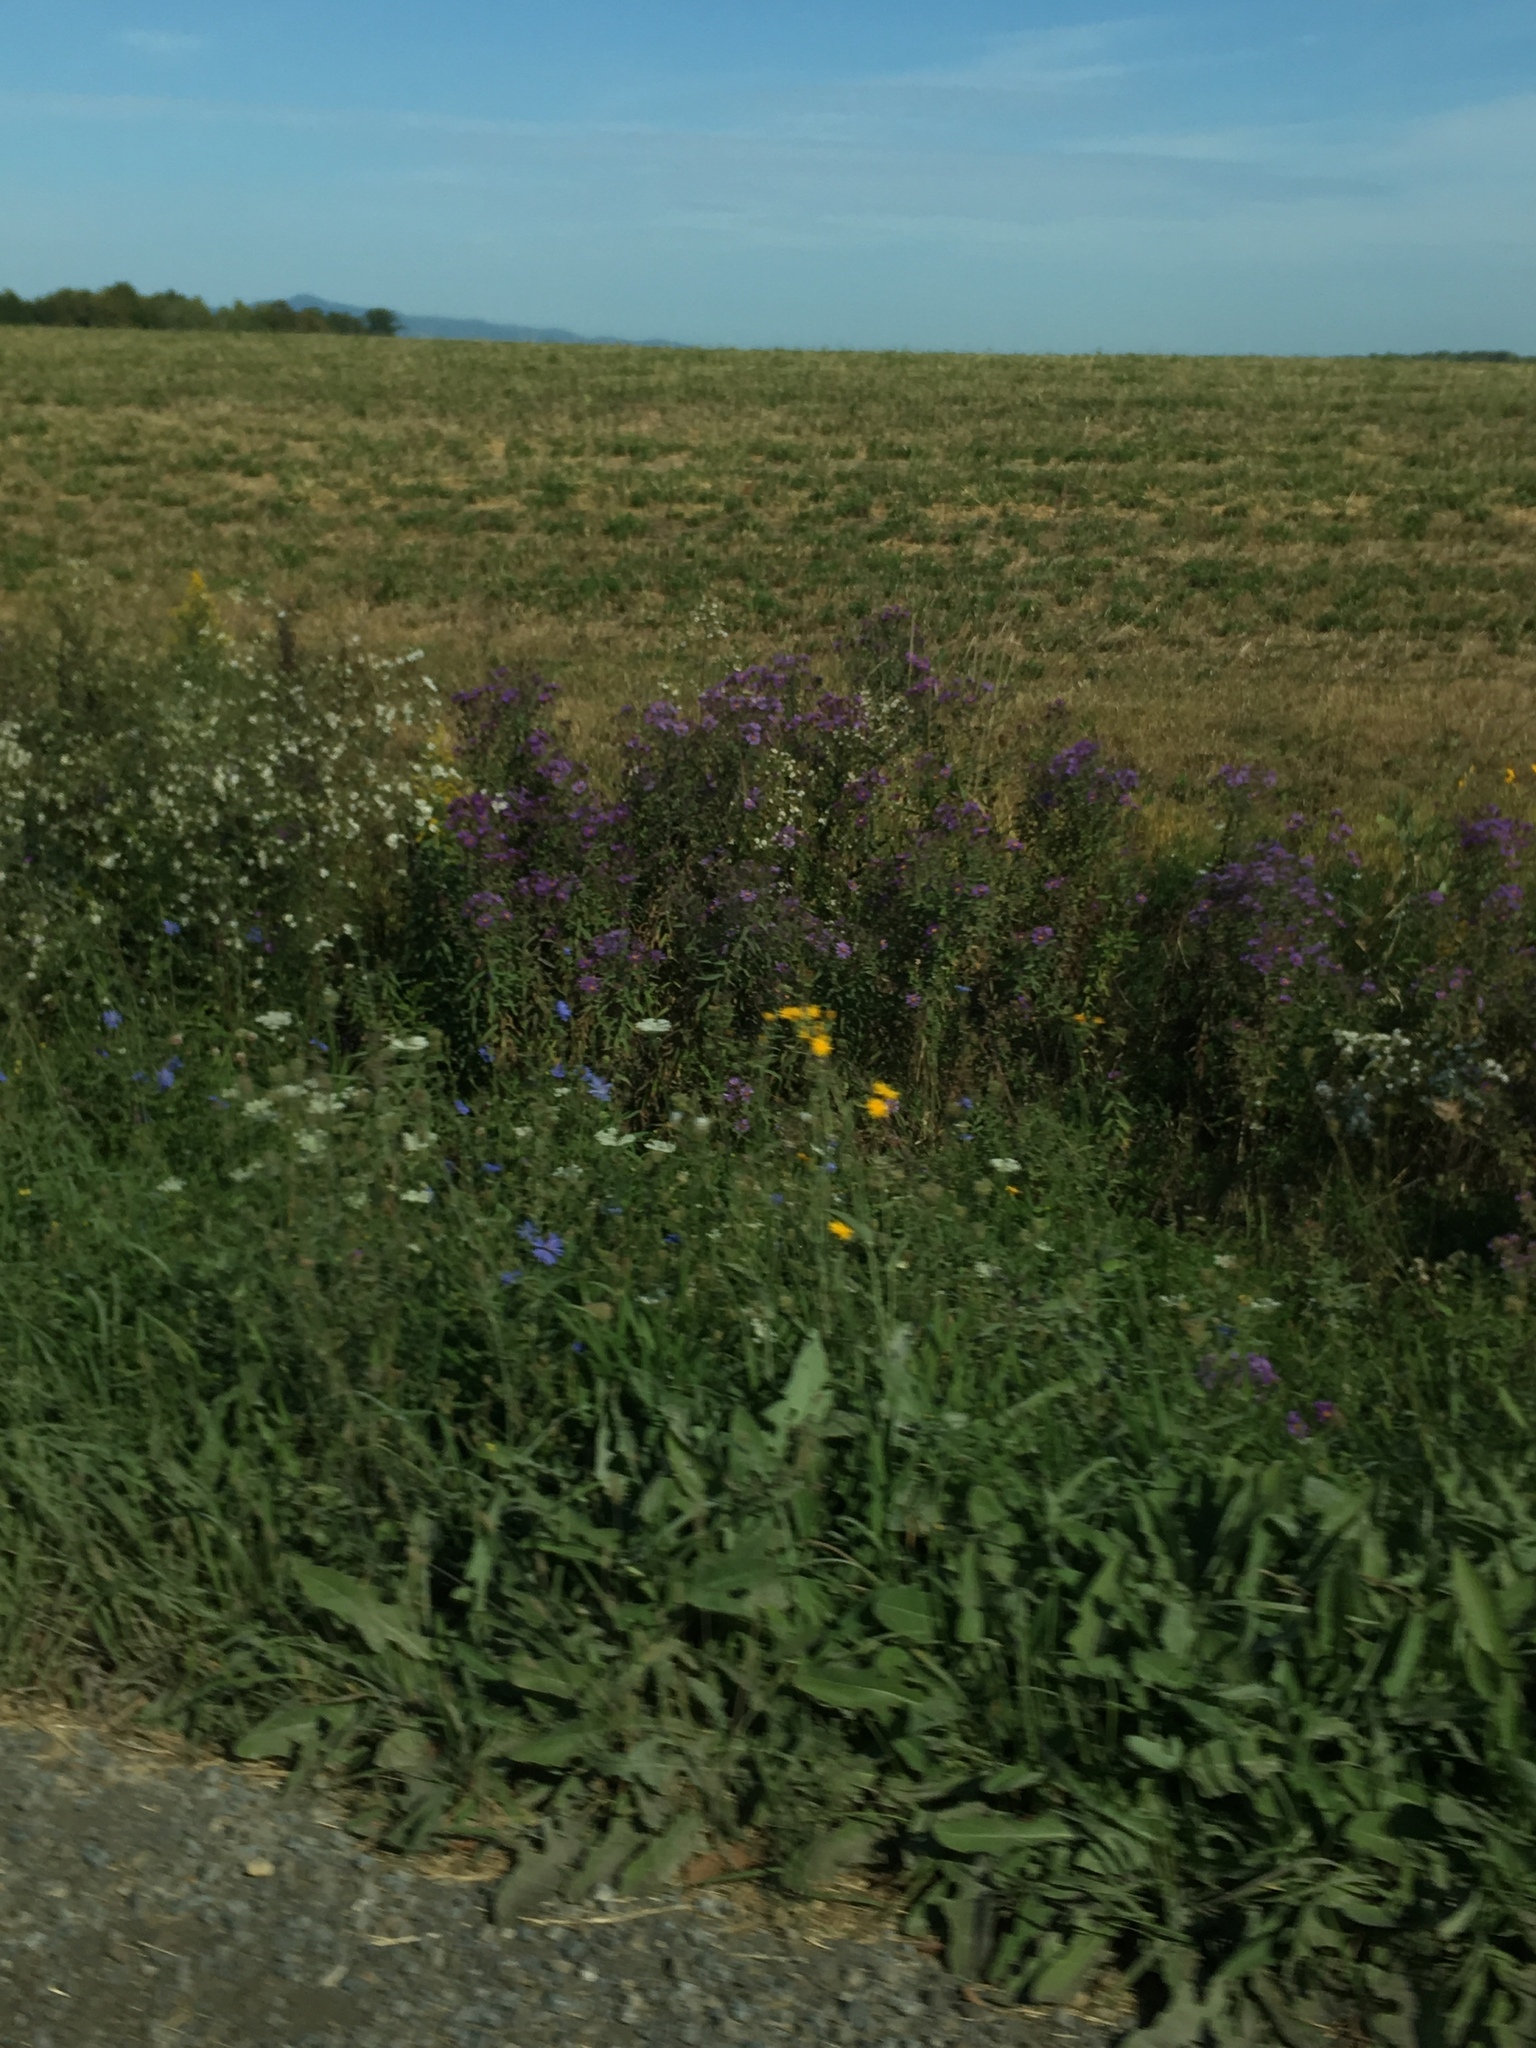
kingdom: Plantae
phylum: Tracheophyta
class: Magnoliopsida
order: Asterales
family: Asteraceae
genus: Cichorium
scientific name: Cichorium intybus
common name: Chicory
